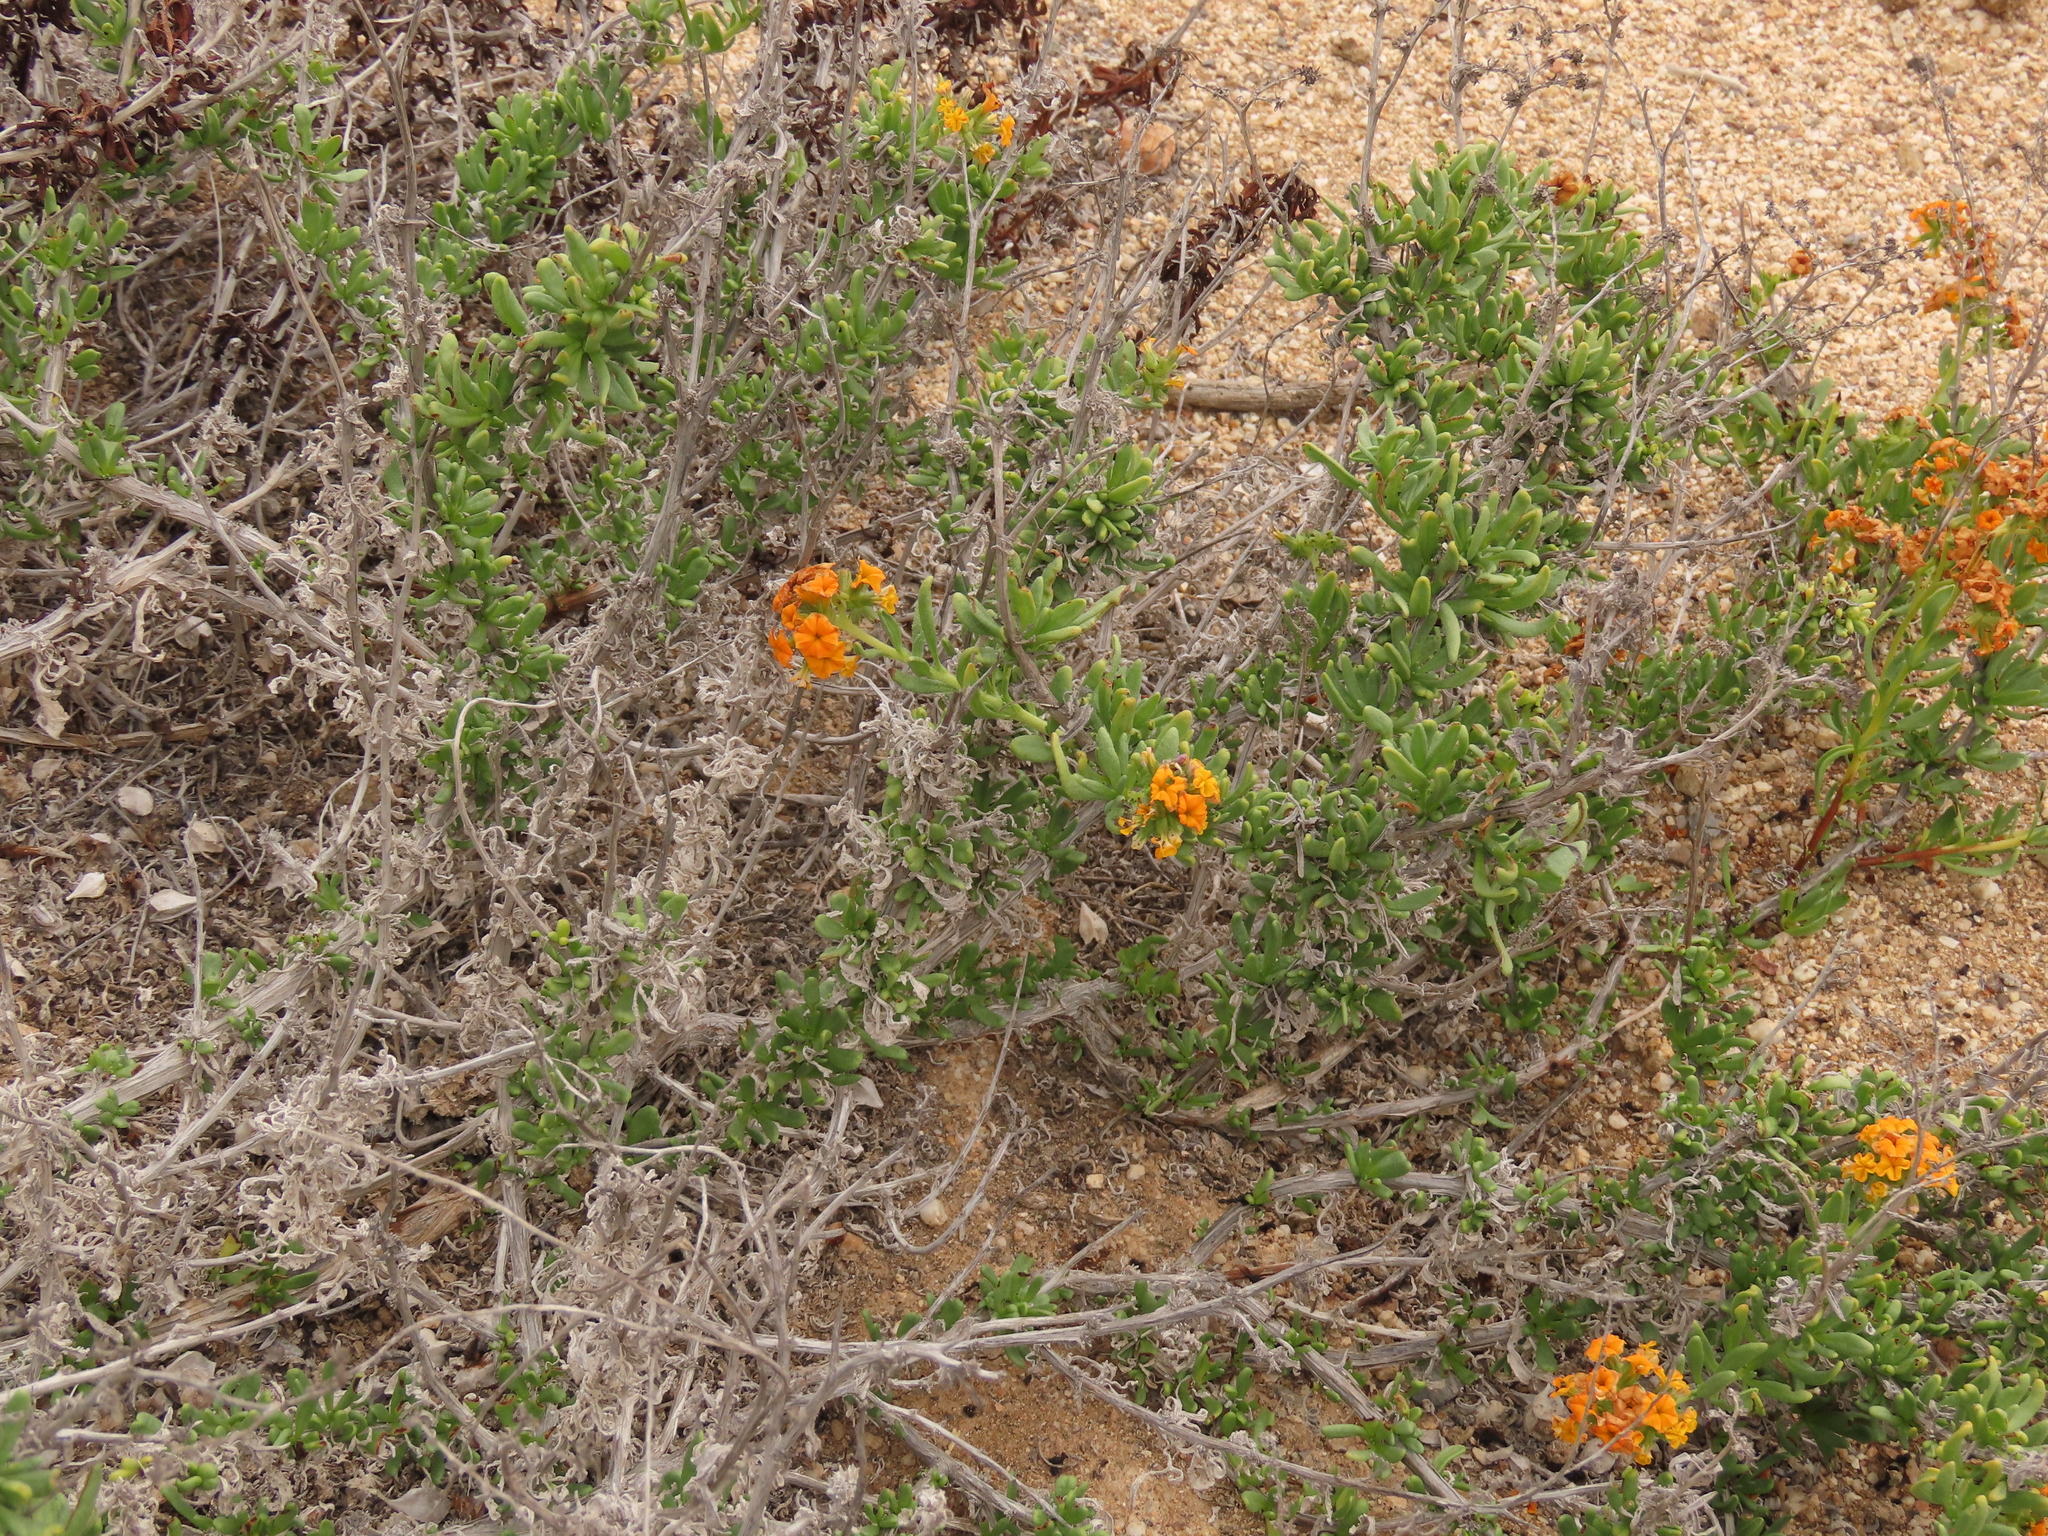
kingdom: Plantae
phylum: Tracheophyta
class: Magnoliopsida
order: Boraginales
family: Heliotropiaceae
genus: Heliotropium
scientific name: Heliotropium linariifolium
